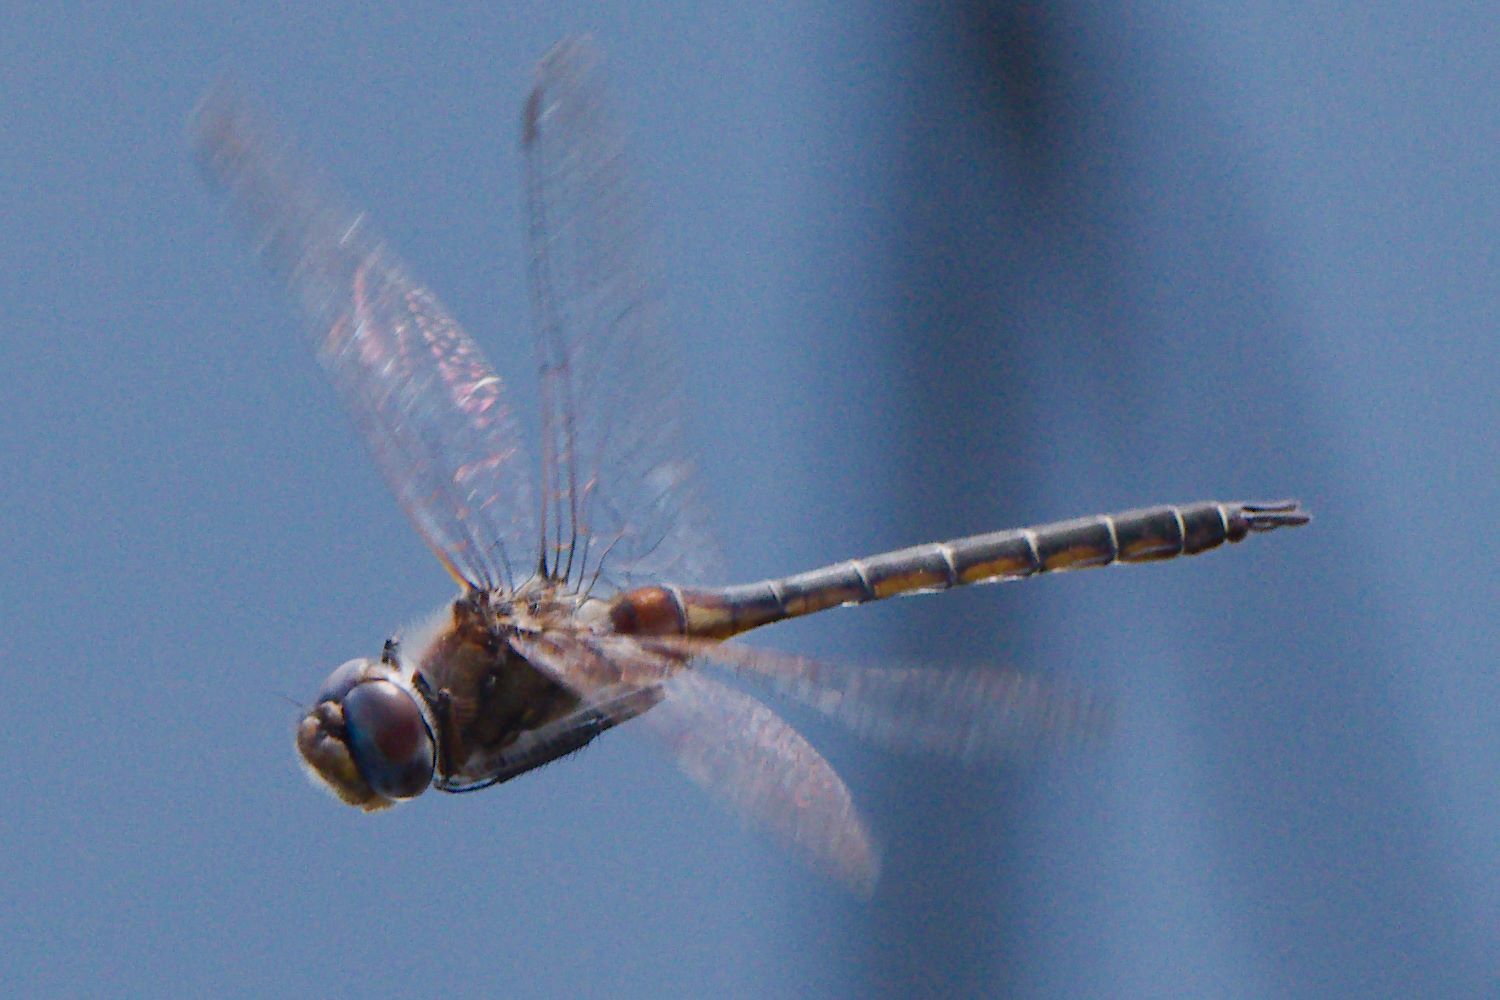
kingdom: Animalia
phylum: Arthropoda
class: Insecta
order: Odonata
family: Corduliidae
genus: Epitheca
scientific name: Epitheca stella
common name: Florida baskettail
